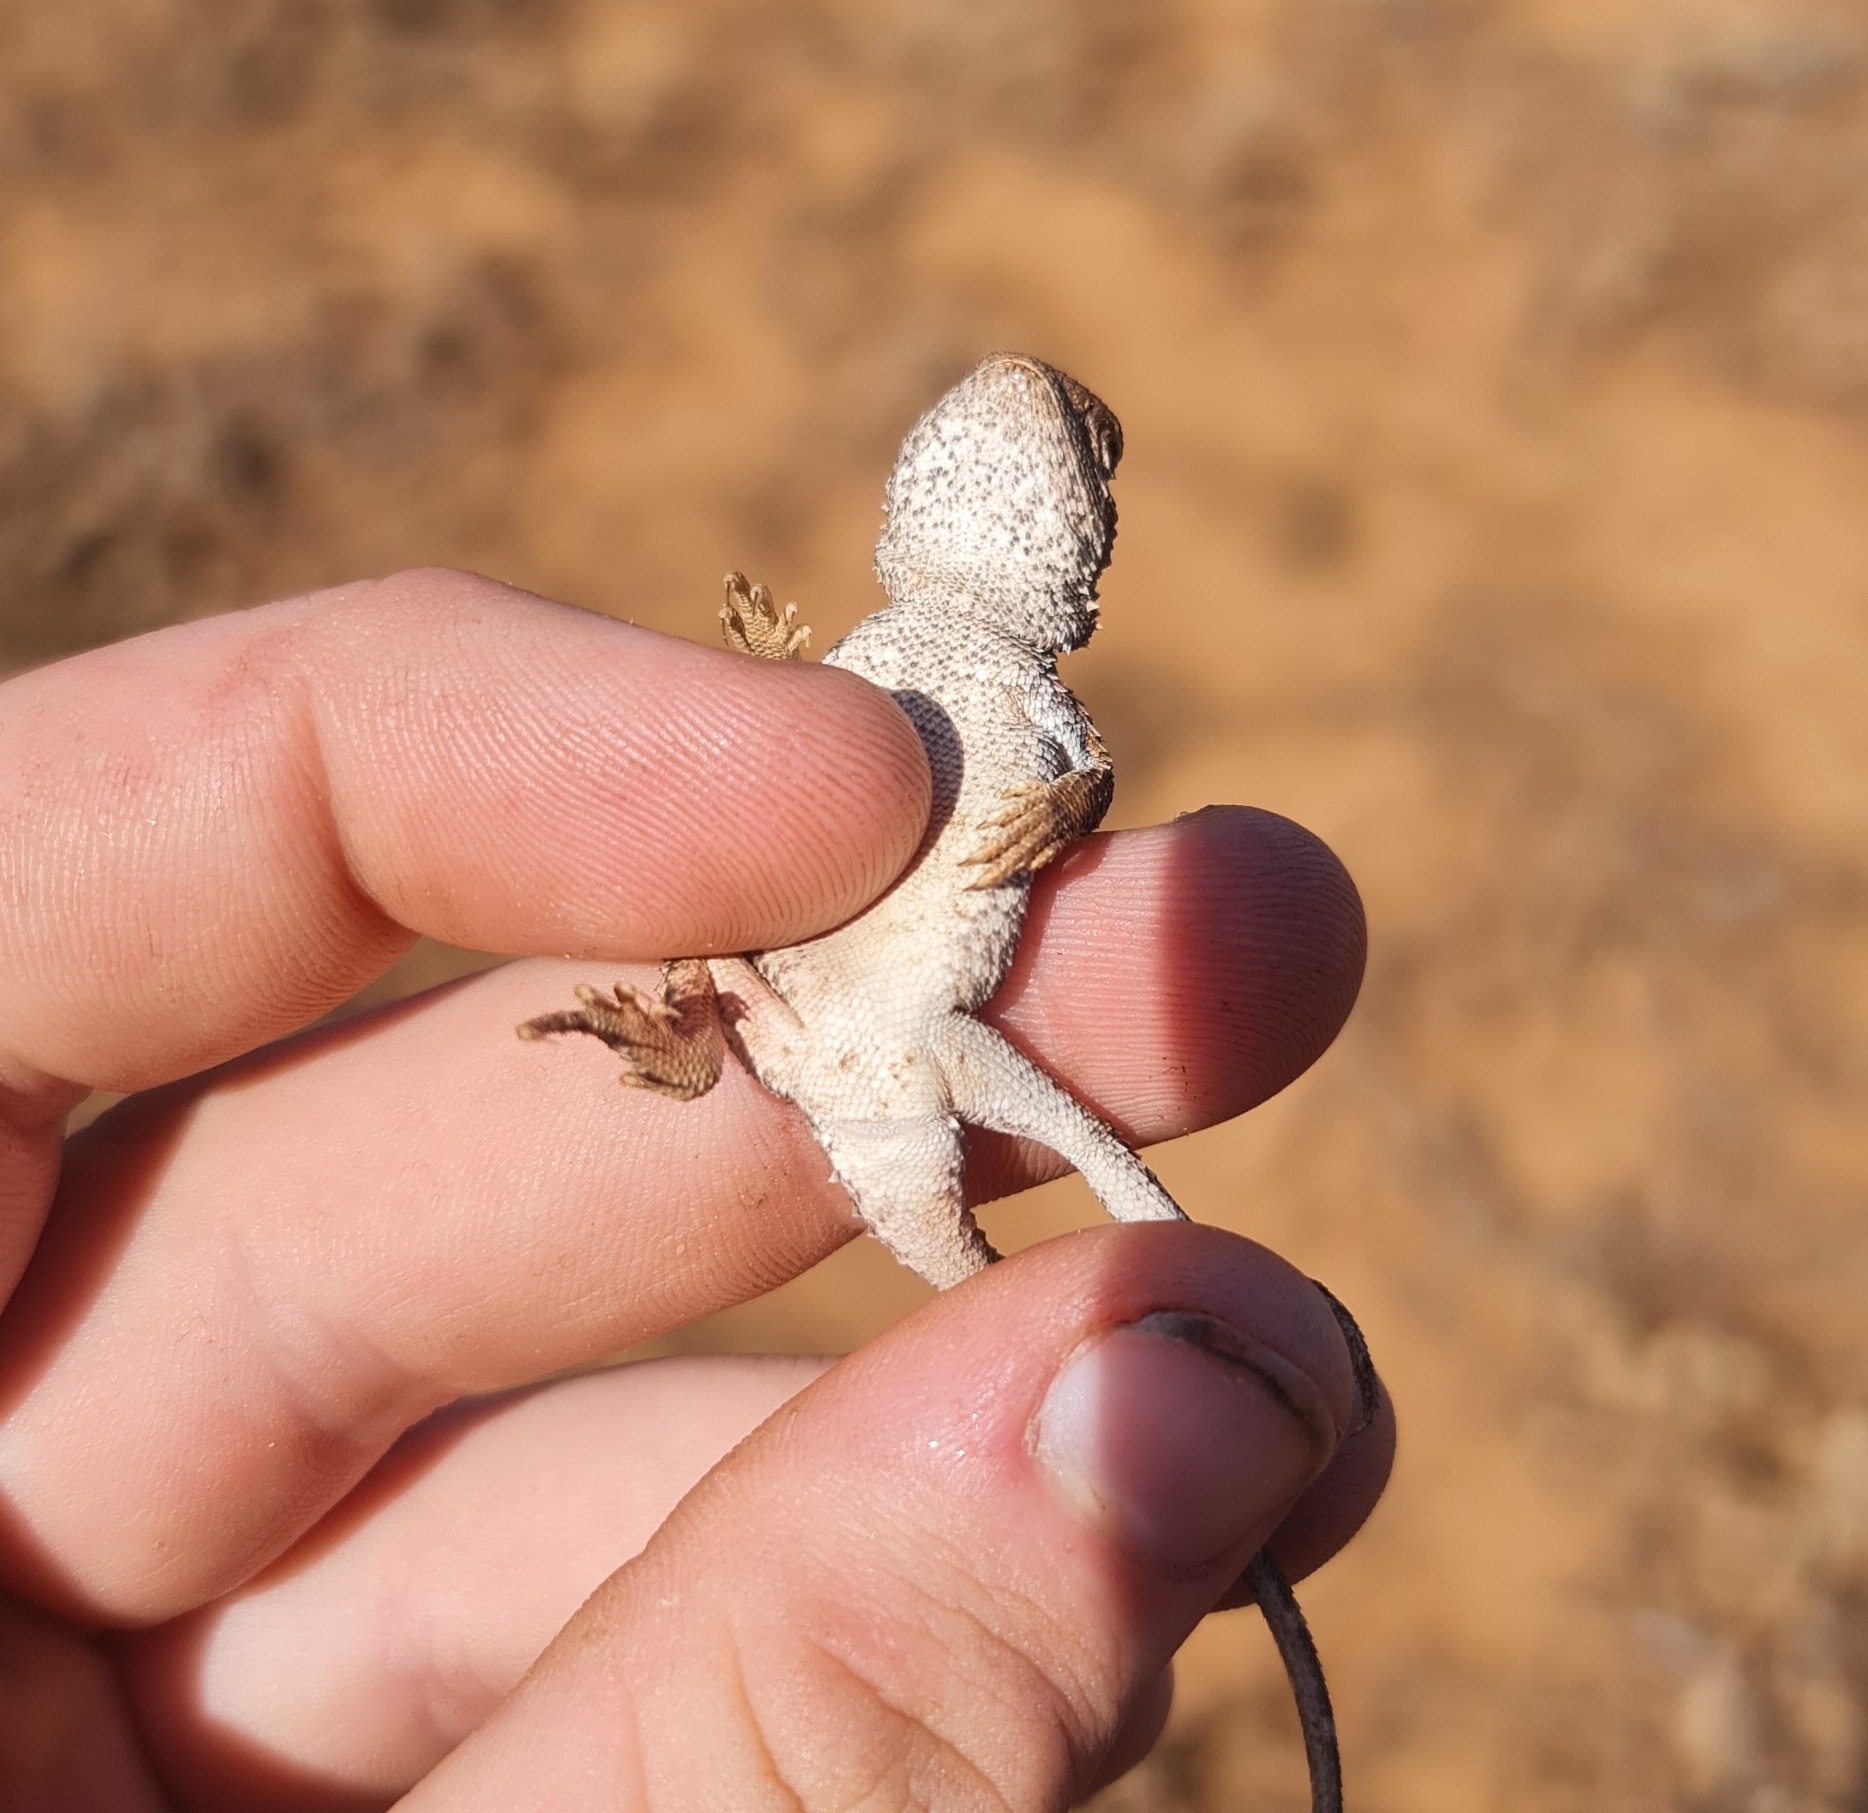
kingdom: Animalia
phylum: Chordata
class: Squamata
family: Agamidae
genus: Tympanocryptis
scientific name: Tympanocryptis tetraporophora
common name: Eyrean earless dragon
